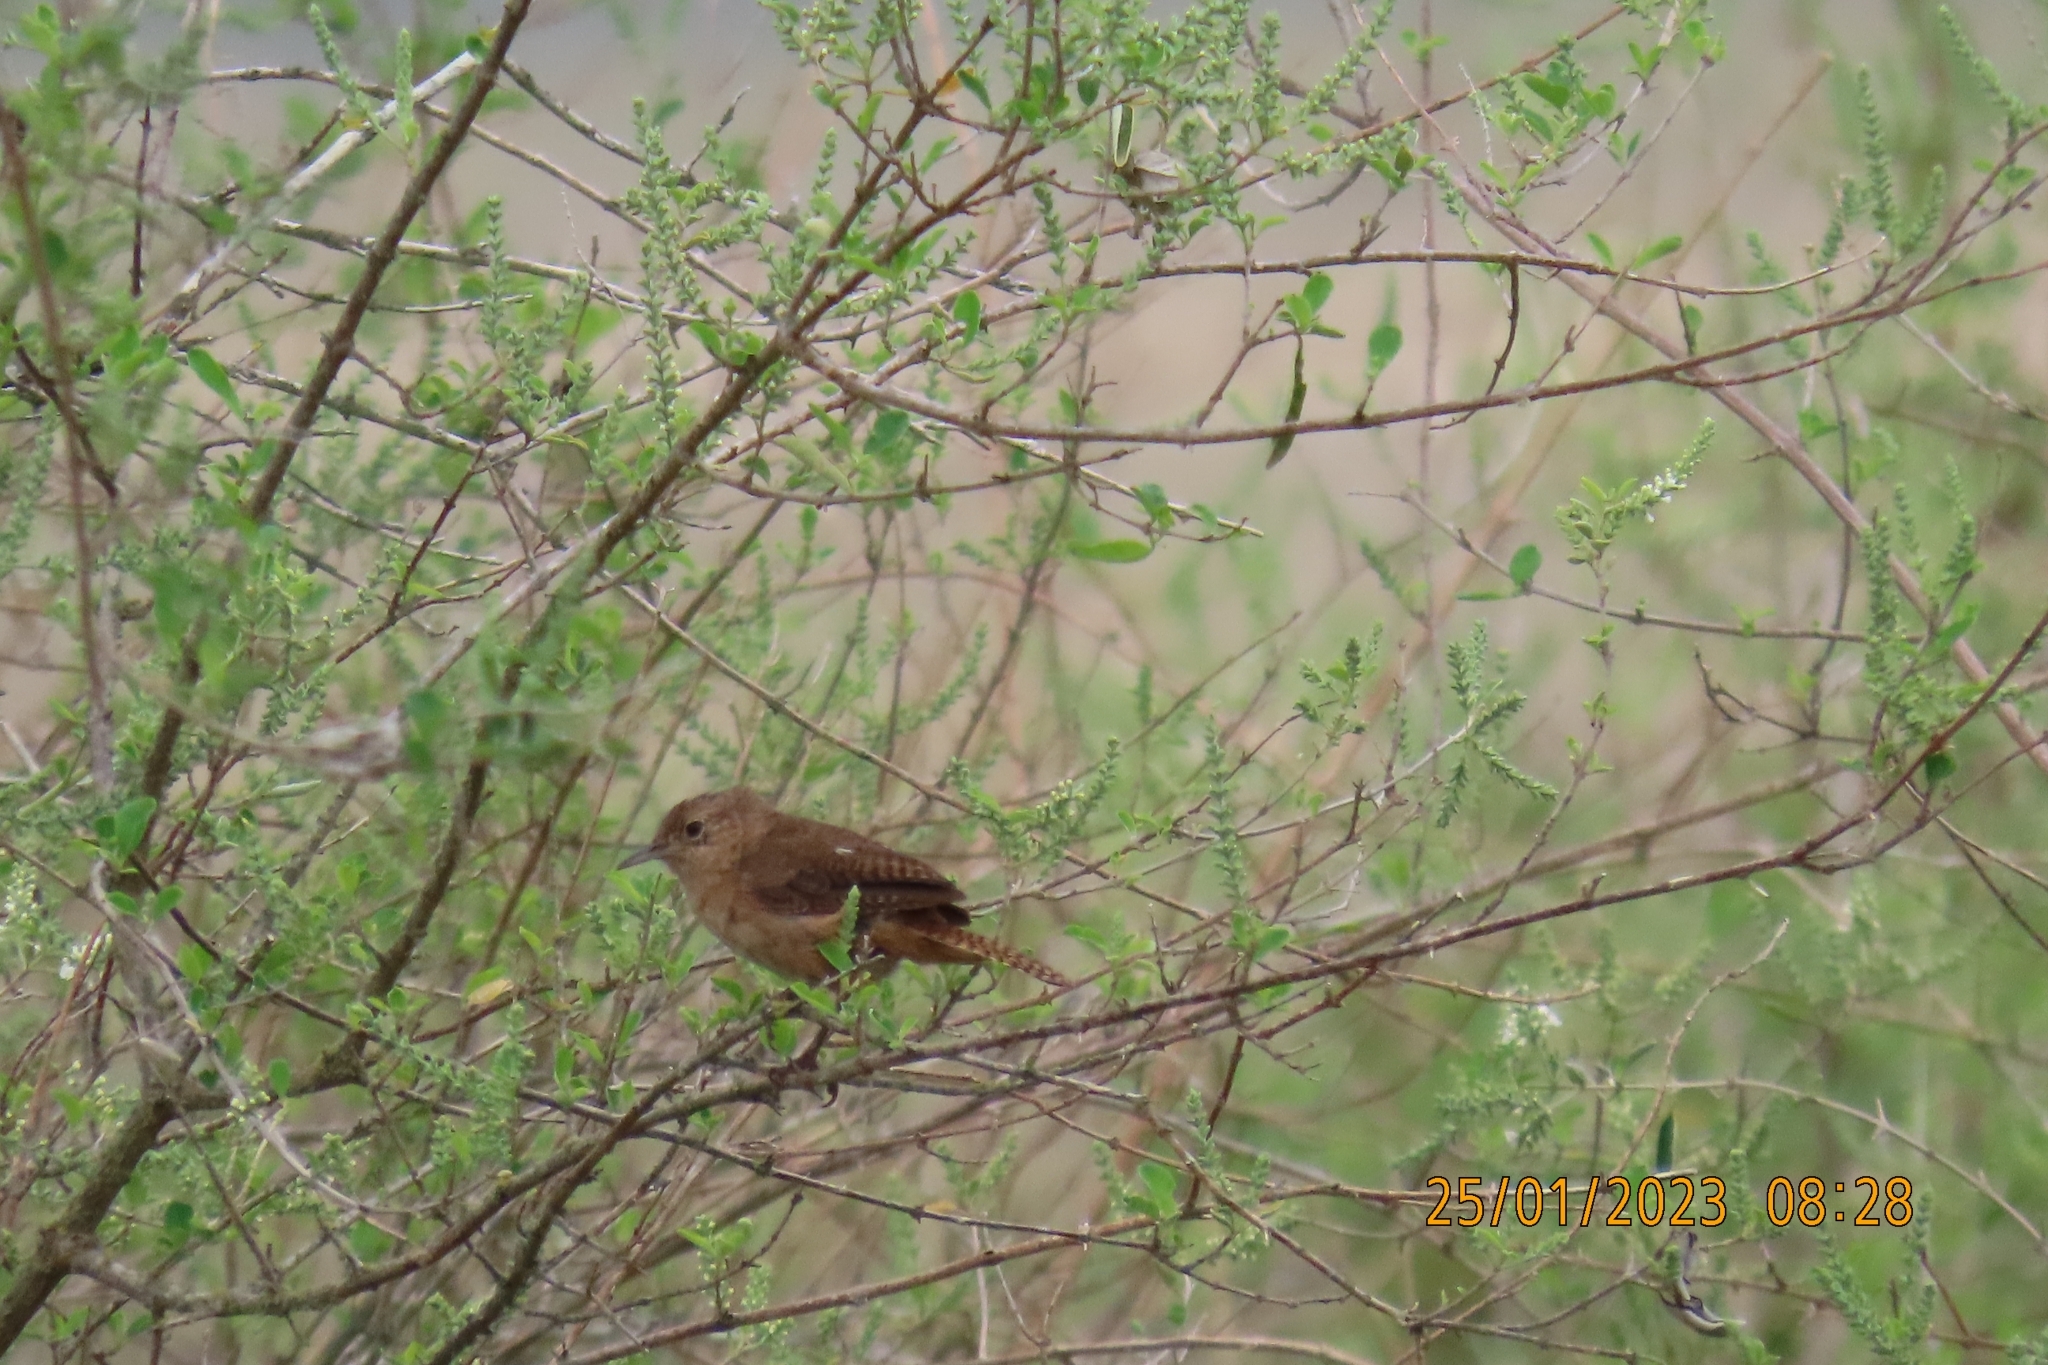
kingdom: Animalia
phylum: Chordata
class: Aves
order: Passeriformes
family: Troglodytidae
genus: Troglodytes
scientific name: Troglodytes aedon
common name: House wren
